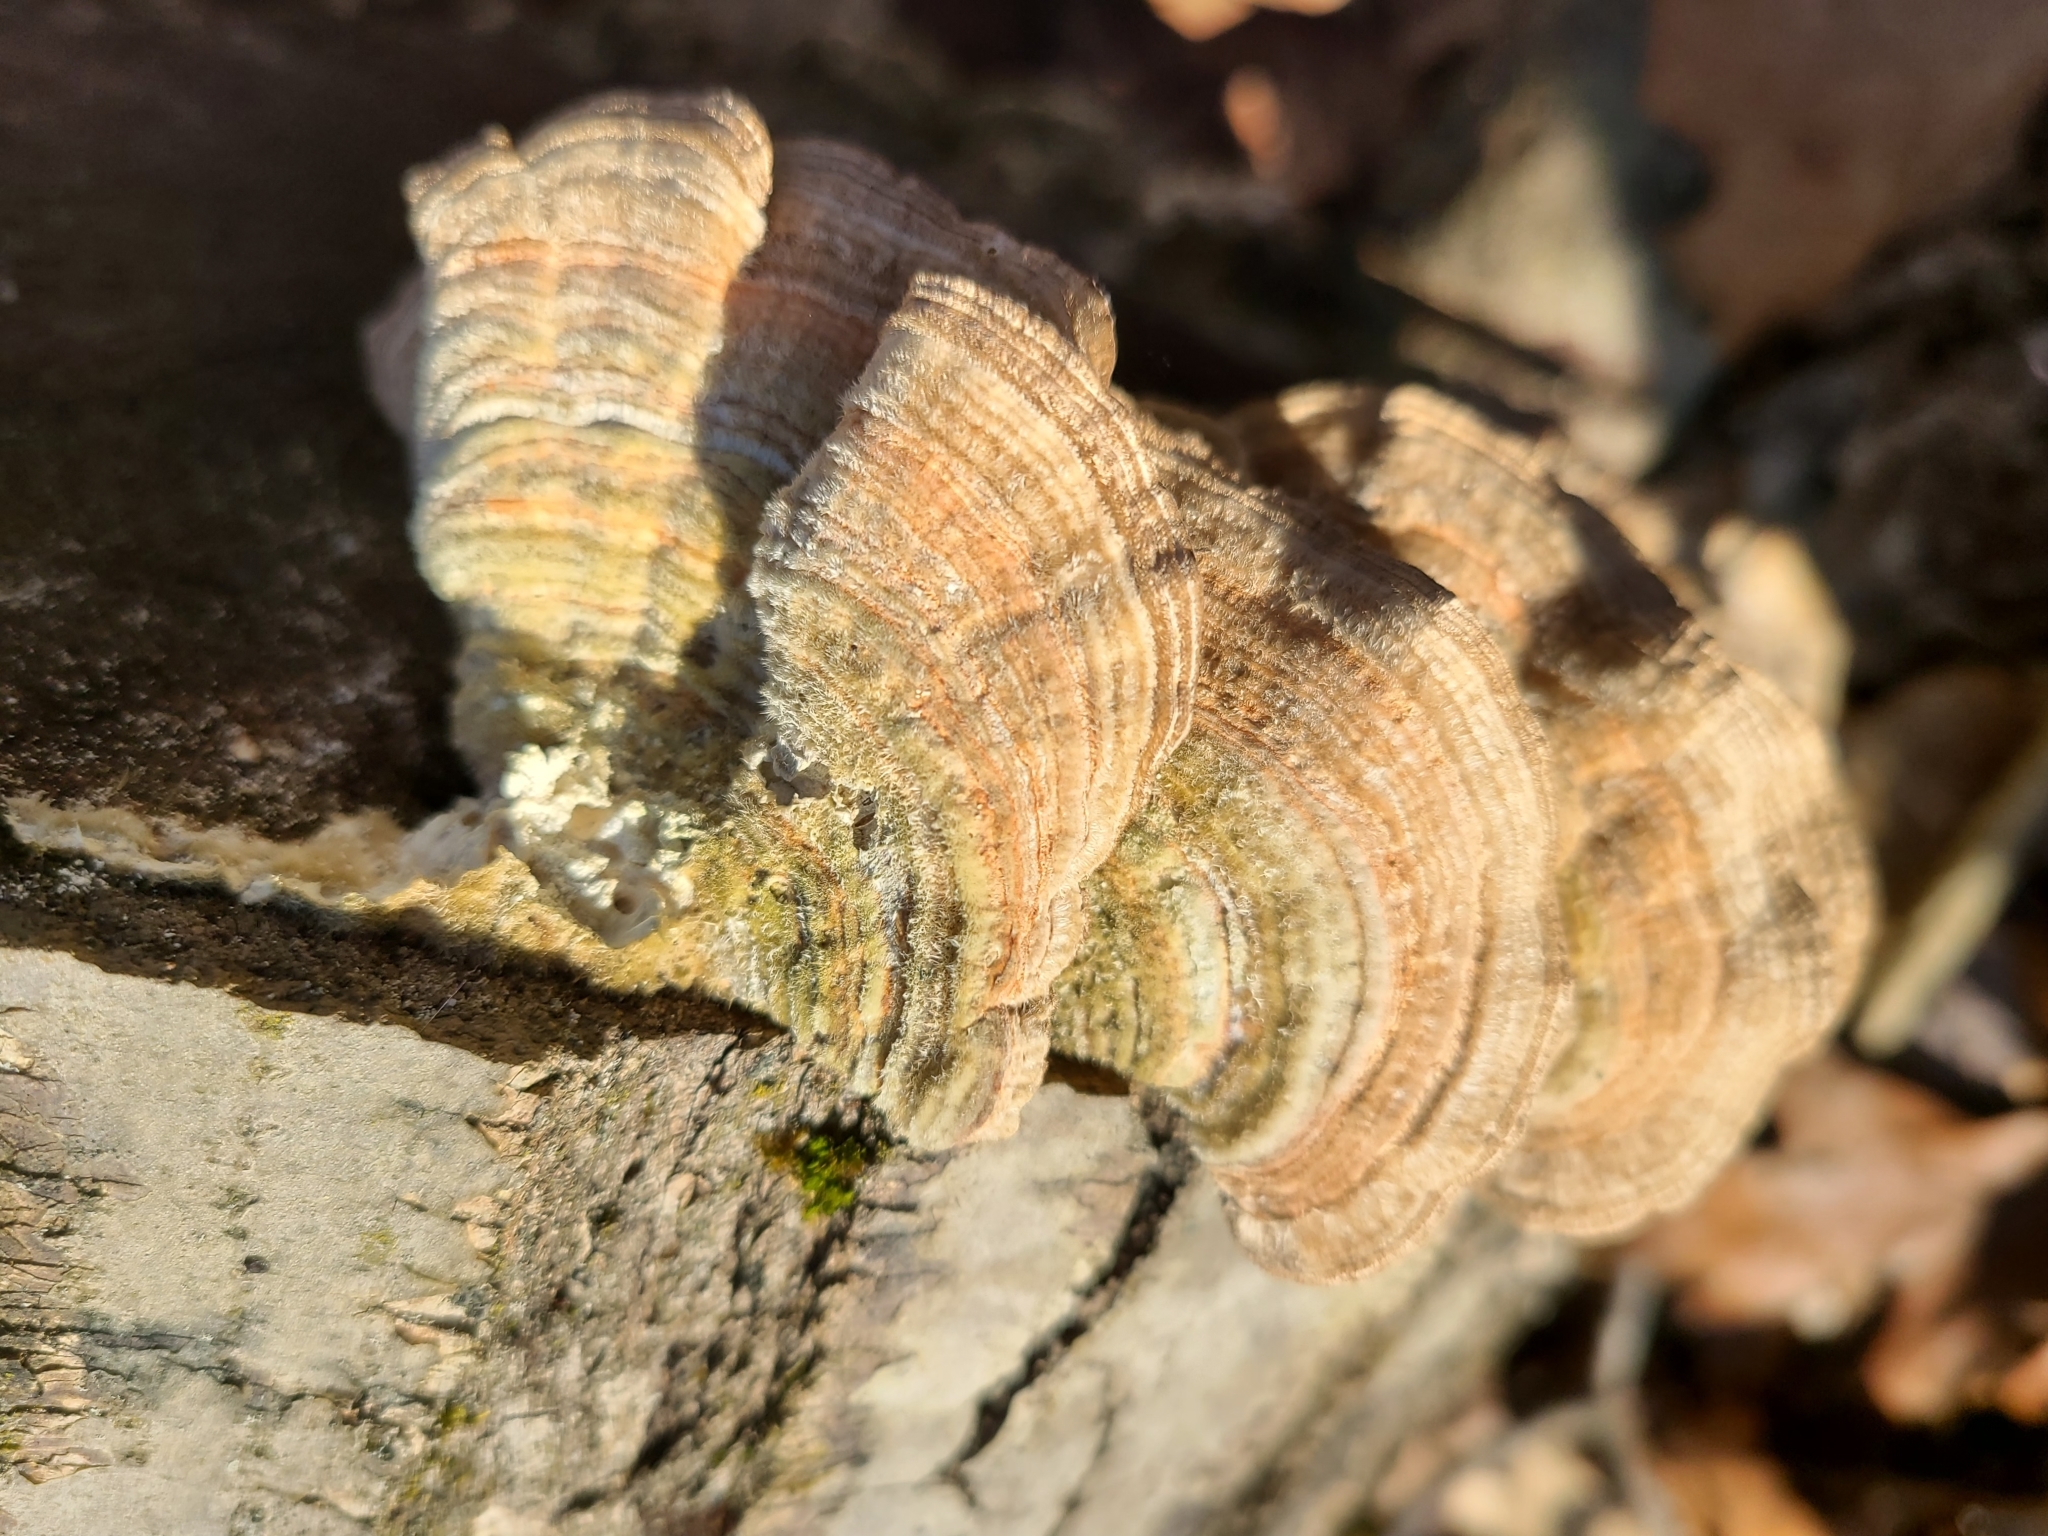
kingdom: Fungi
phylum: Basidiomycota
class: Agaricomycetes
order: Polyporales
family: Polyporaceae
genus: Lenzites
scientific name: Lenzites betulinus
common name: Birch mazegill
